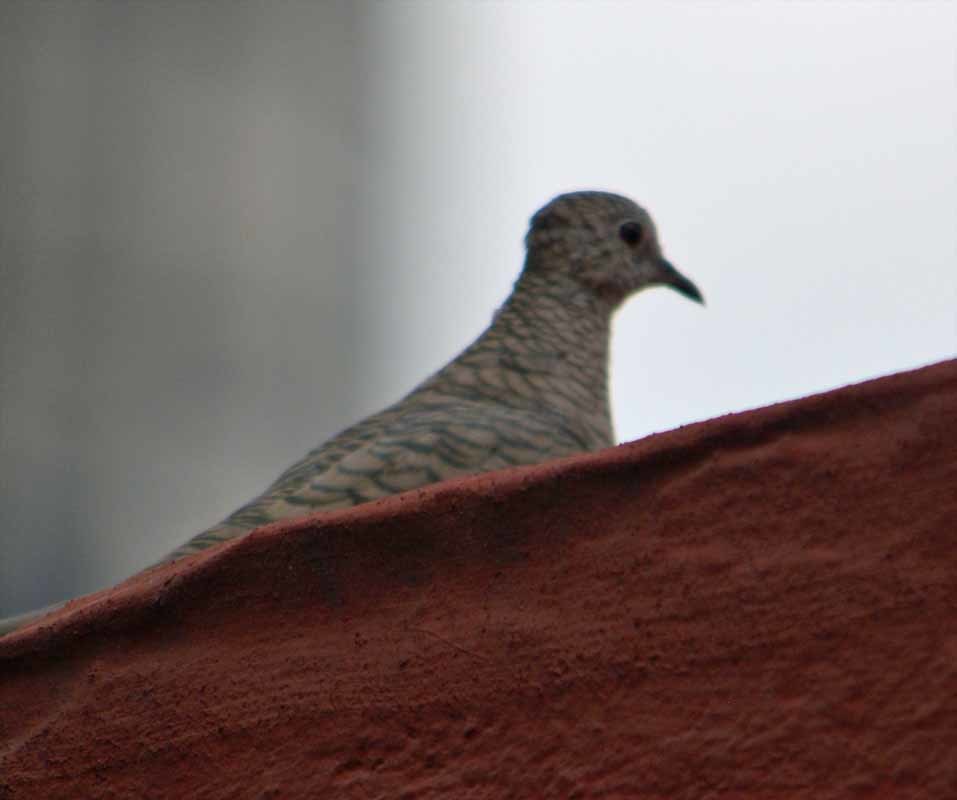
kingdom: Animalia
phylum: Chordata
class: Aves
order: Columbiformes
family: Columbidae
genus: Columbina
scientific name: Columbina inca
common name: Inca dove
